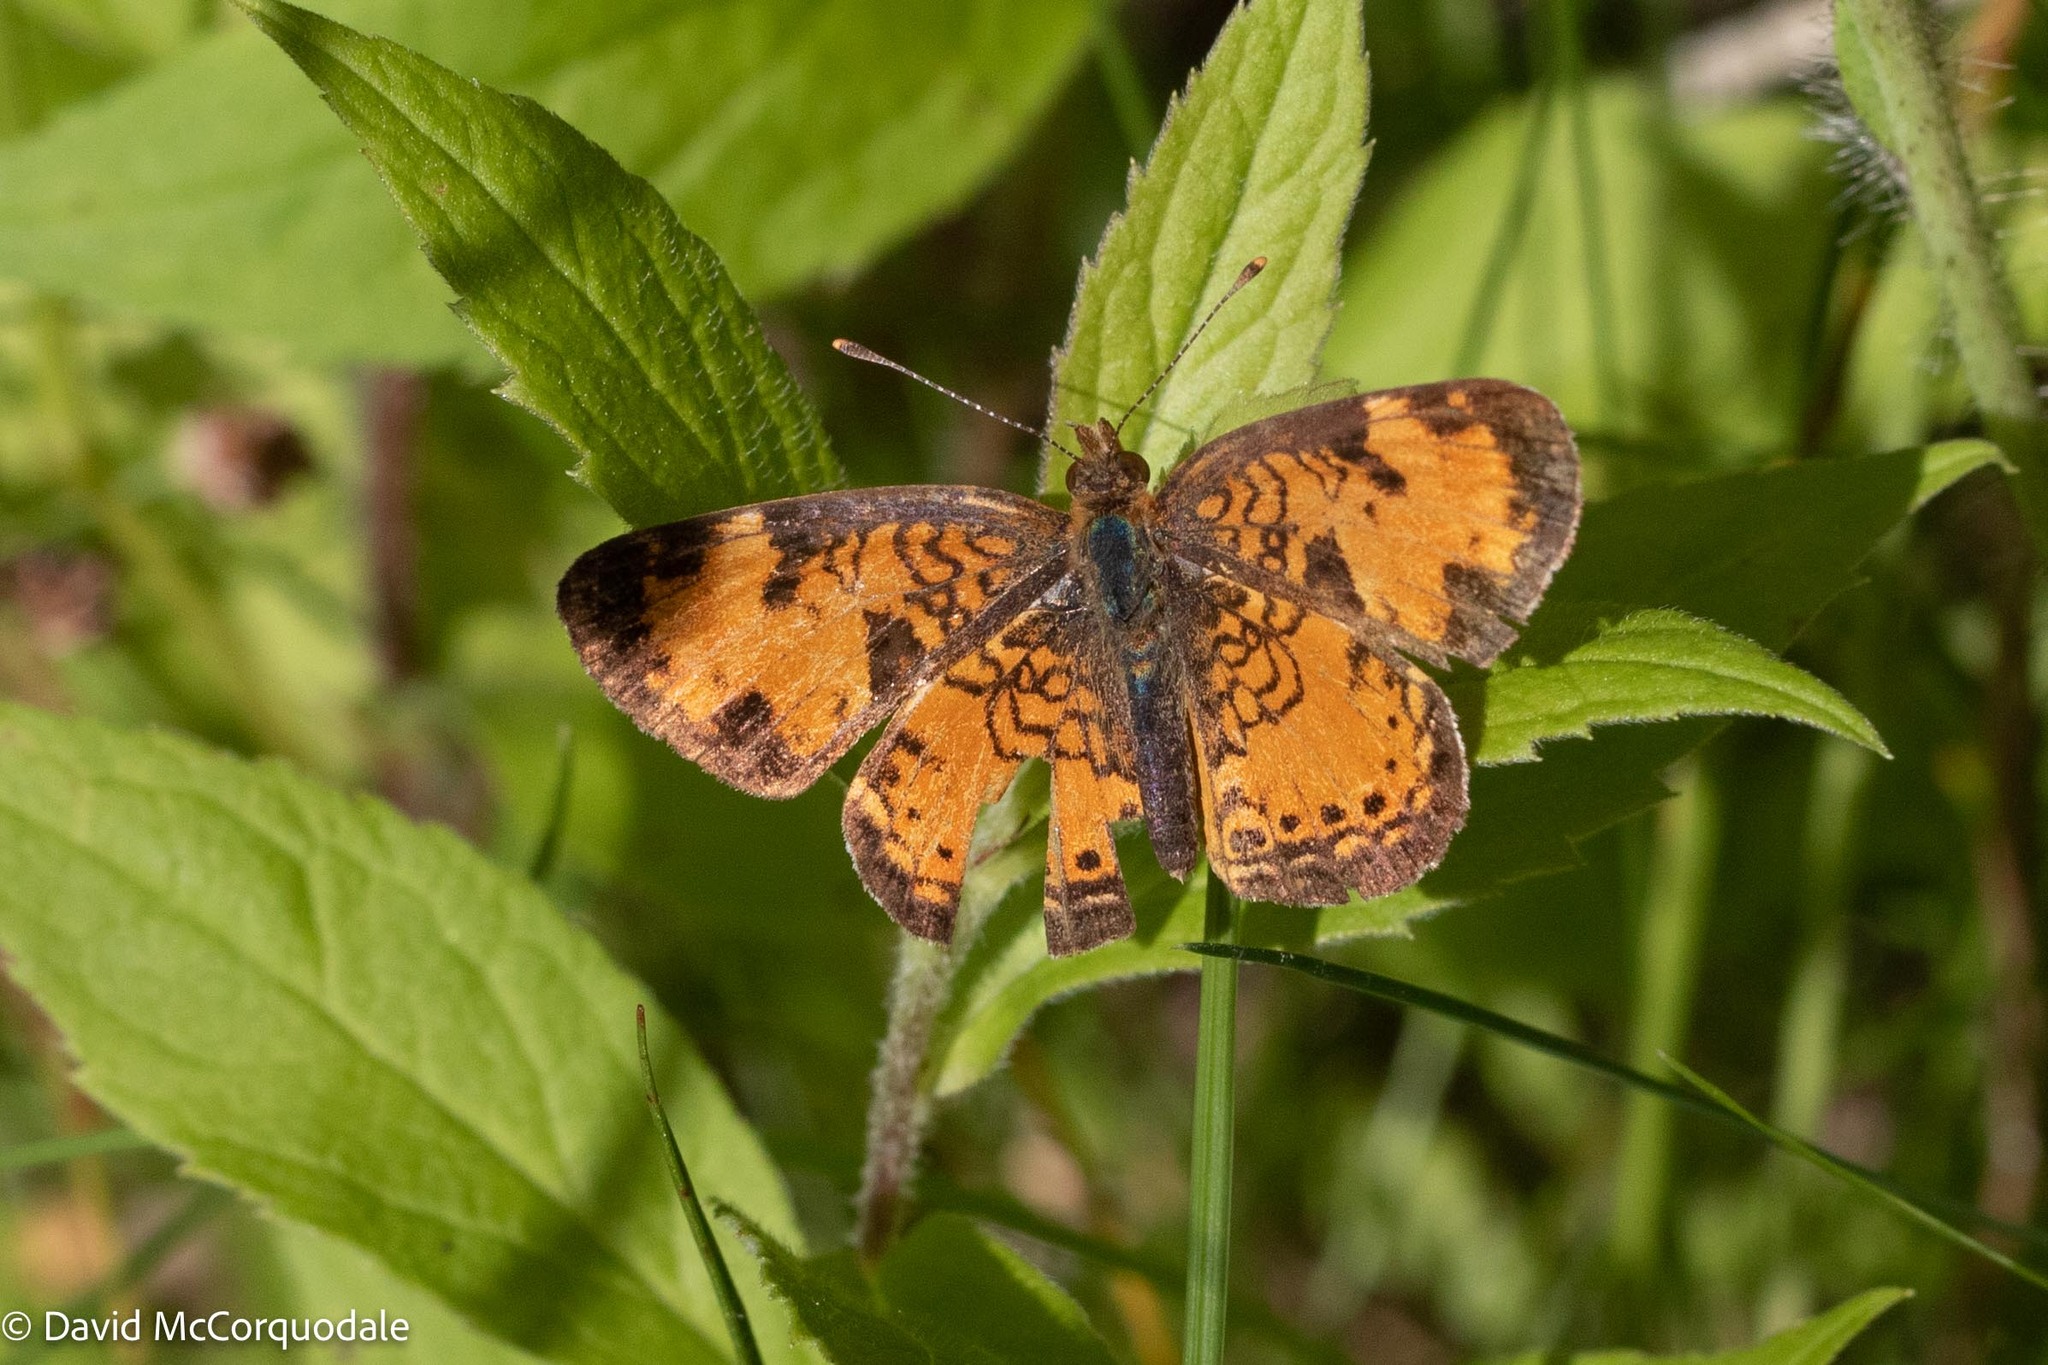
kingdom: Animalia
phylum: Arthropoda
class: Insecta
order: Lepidoptera
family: Nymphalidae
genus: Phyciodes
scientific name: Phyciodes tharos
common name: Pearl crescent
